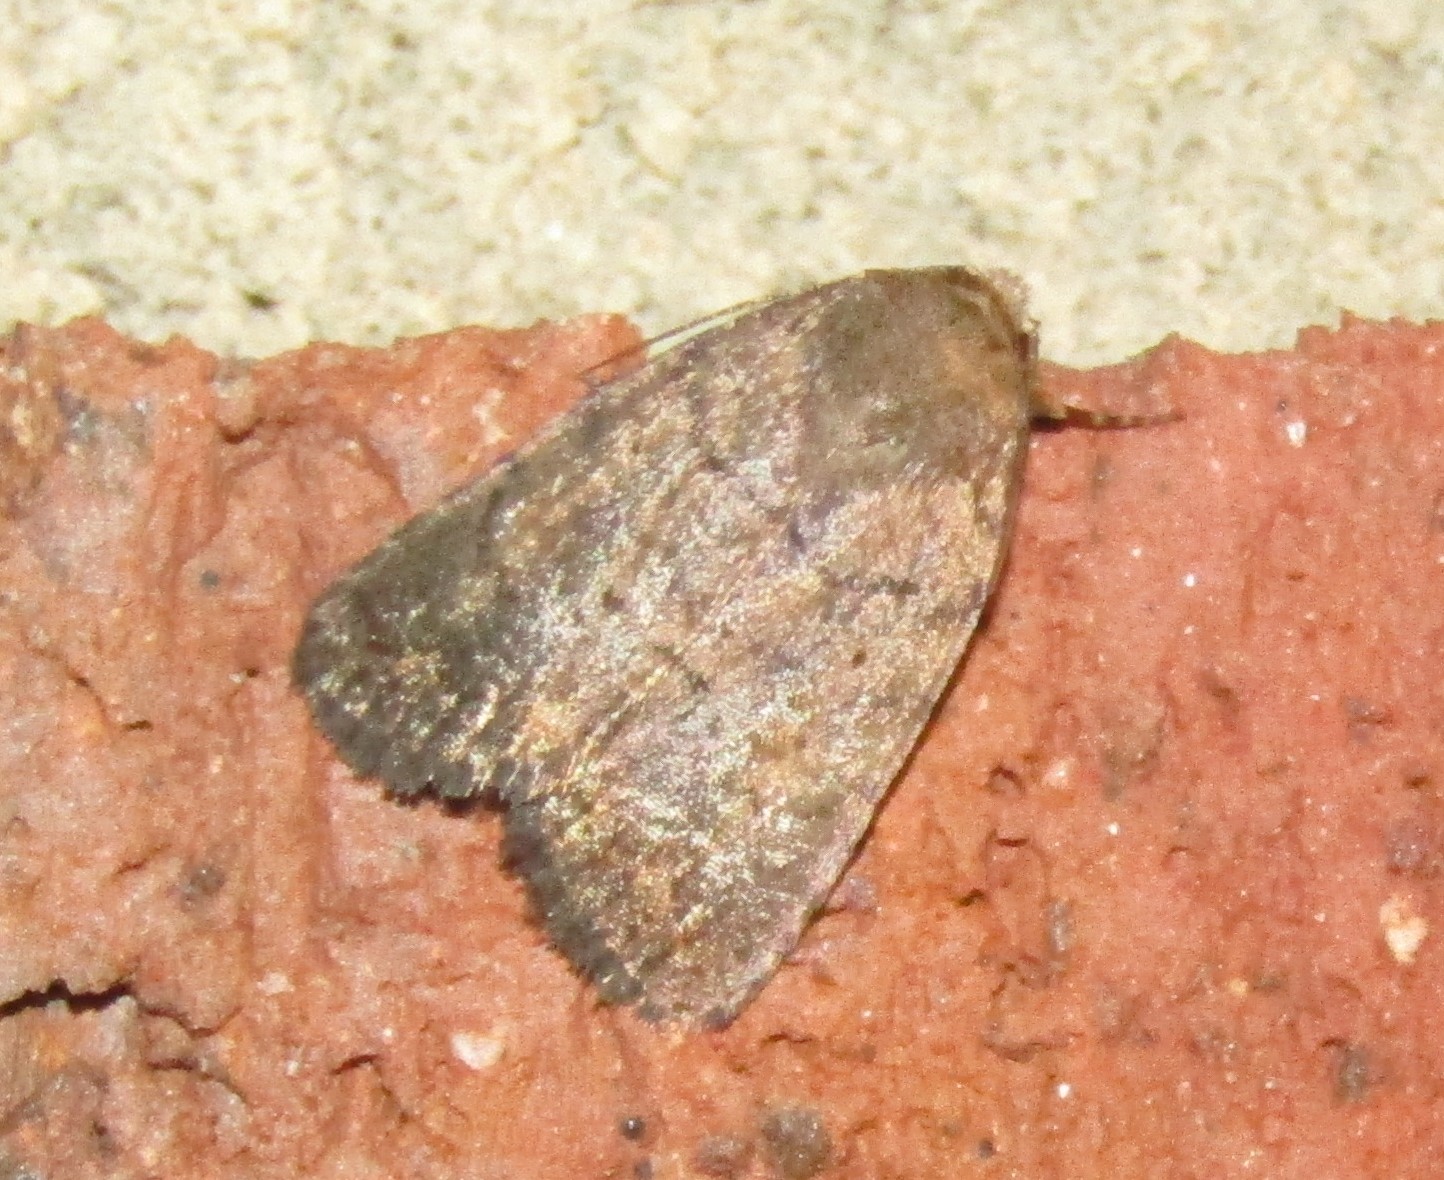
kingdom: Animalia
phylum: Arthropoda
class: Insecta
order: Lepidoptera
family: Noctuidae
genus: Athetis
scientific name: Athetis tarda
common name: Slowpoke moth
